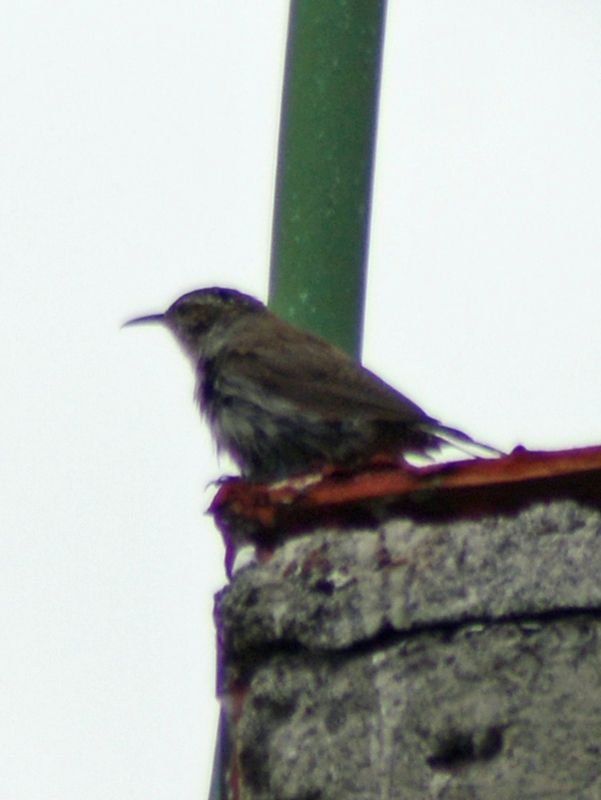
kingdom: Animalia
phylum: Chordata
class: Aves
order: Passeriformes
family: Troglodytidae
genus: Thryomanes
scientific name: Thryomanes bewickii
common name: Bewick's wren
